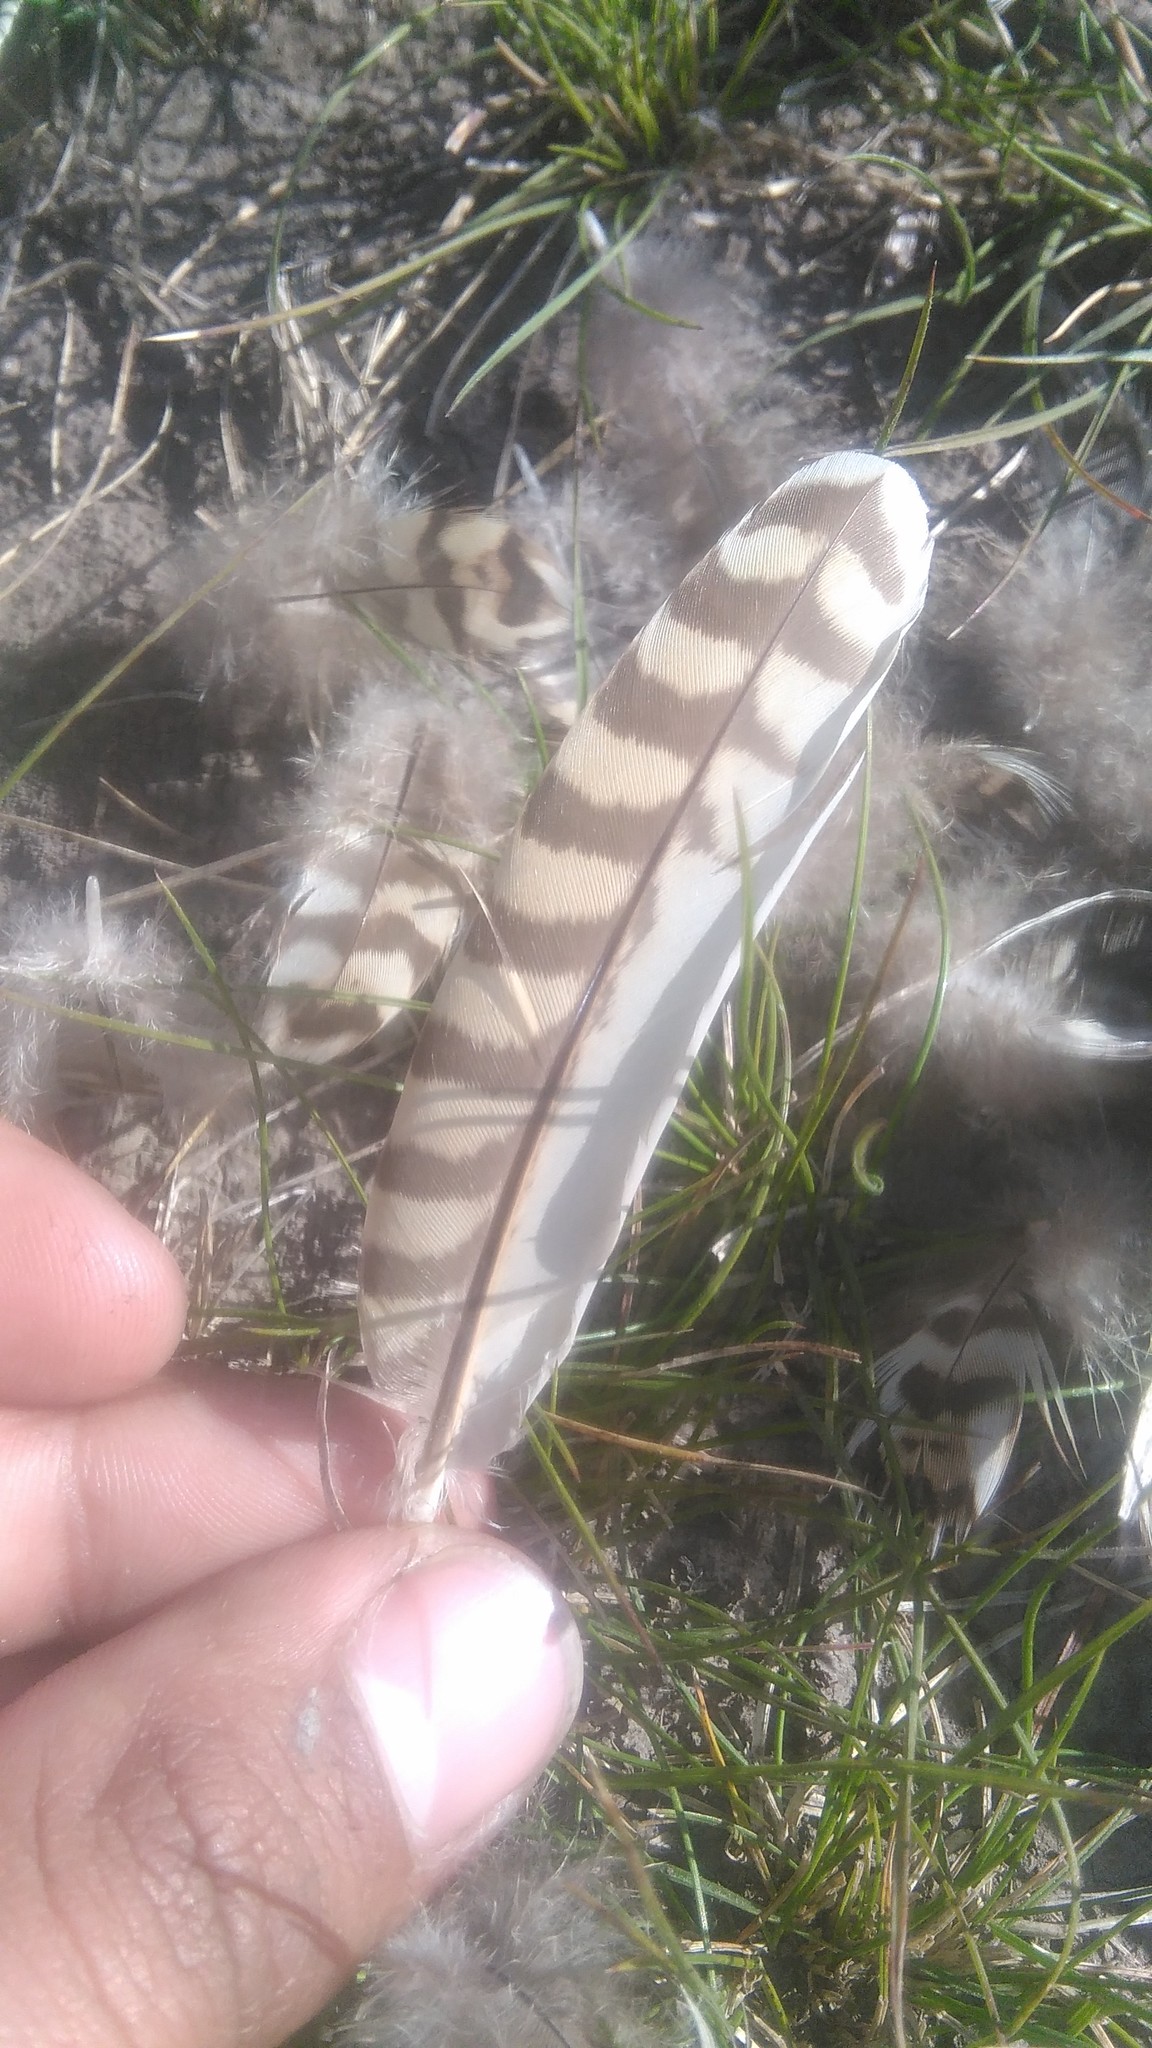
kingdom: Animalia
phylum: Chordata
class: Aves
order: Tinamiformes
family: Tinamidae
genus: Nothura
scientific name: Nothura maculosa
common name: Spotted nothura
